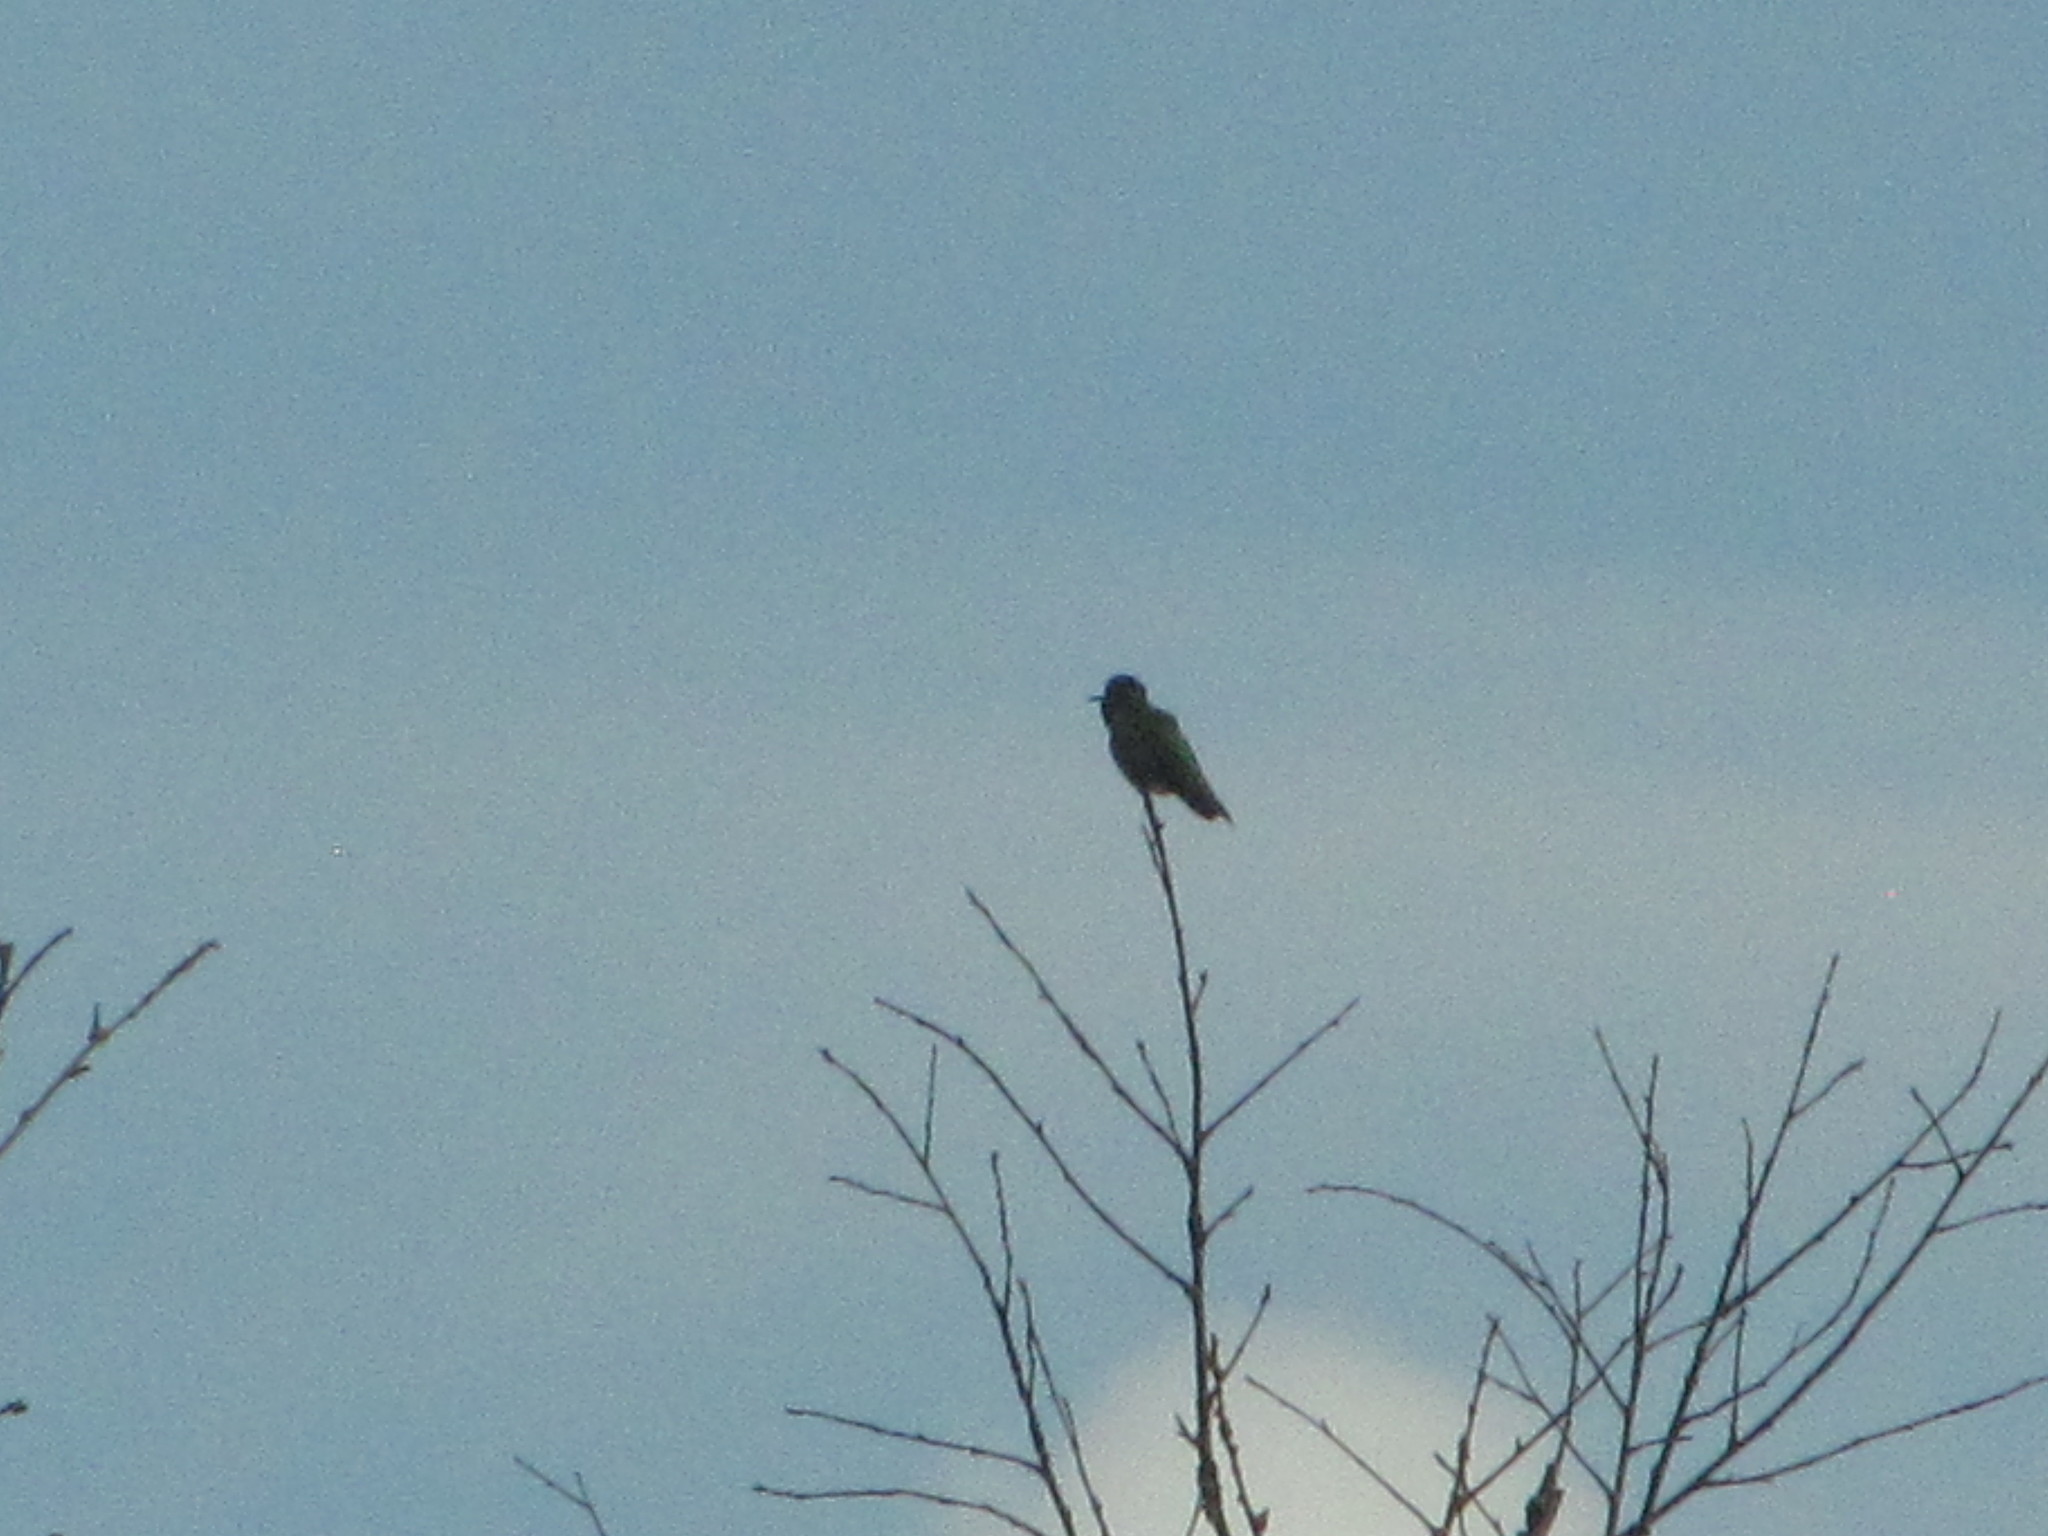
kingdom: Animalia
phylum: Chordata
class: Aves
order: Apodiformes
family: Trochilidae
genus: Calypte
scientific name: Calypte anna
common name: Anna's hummingbird
